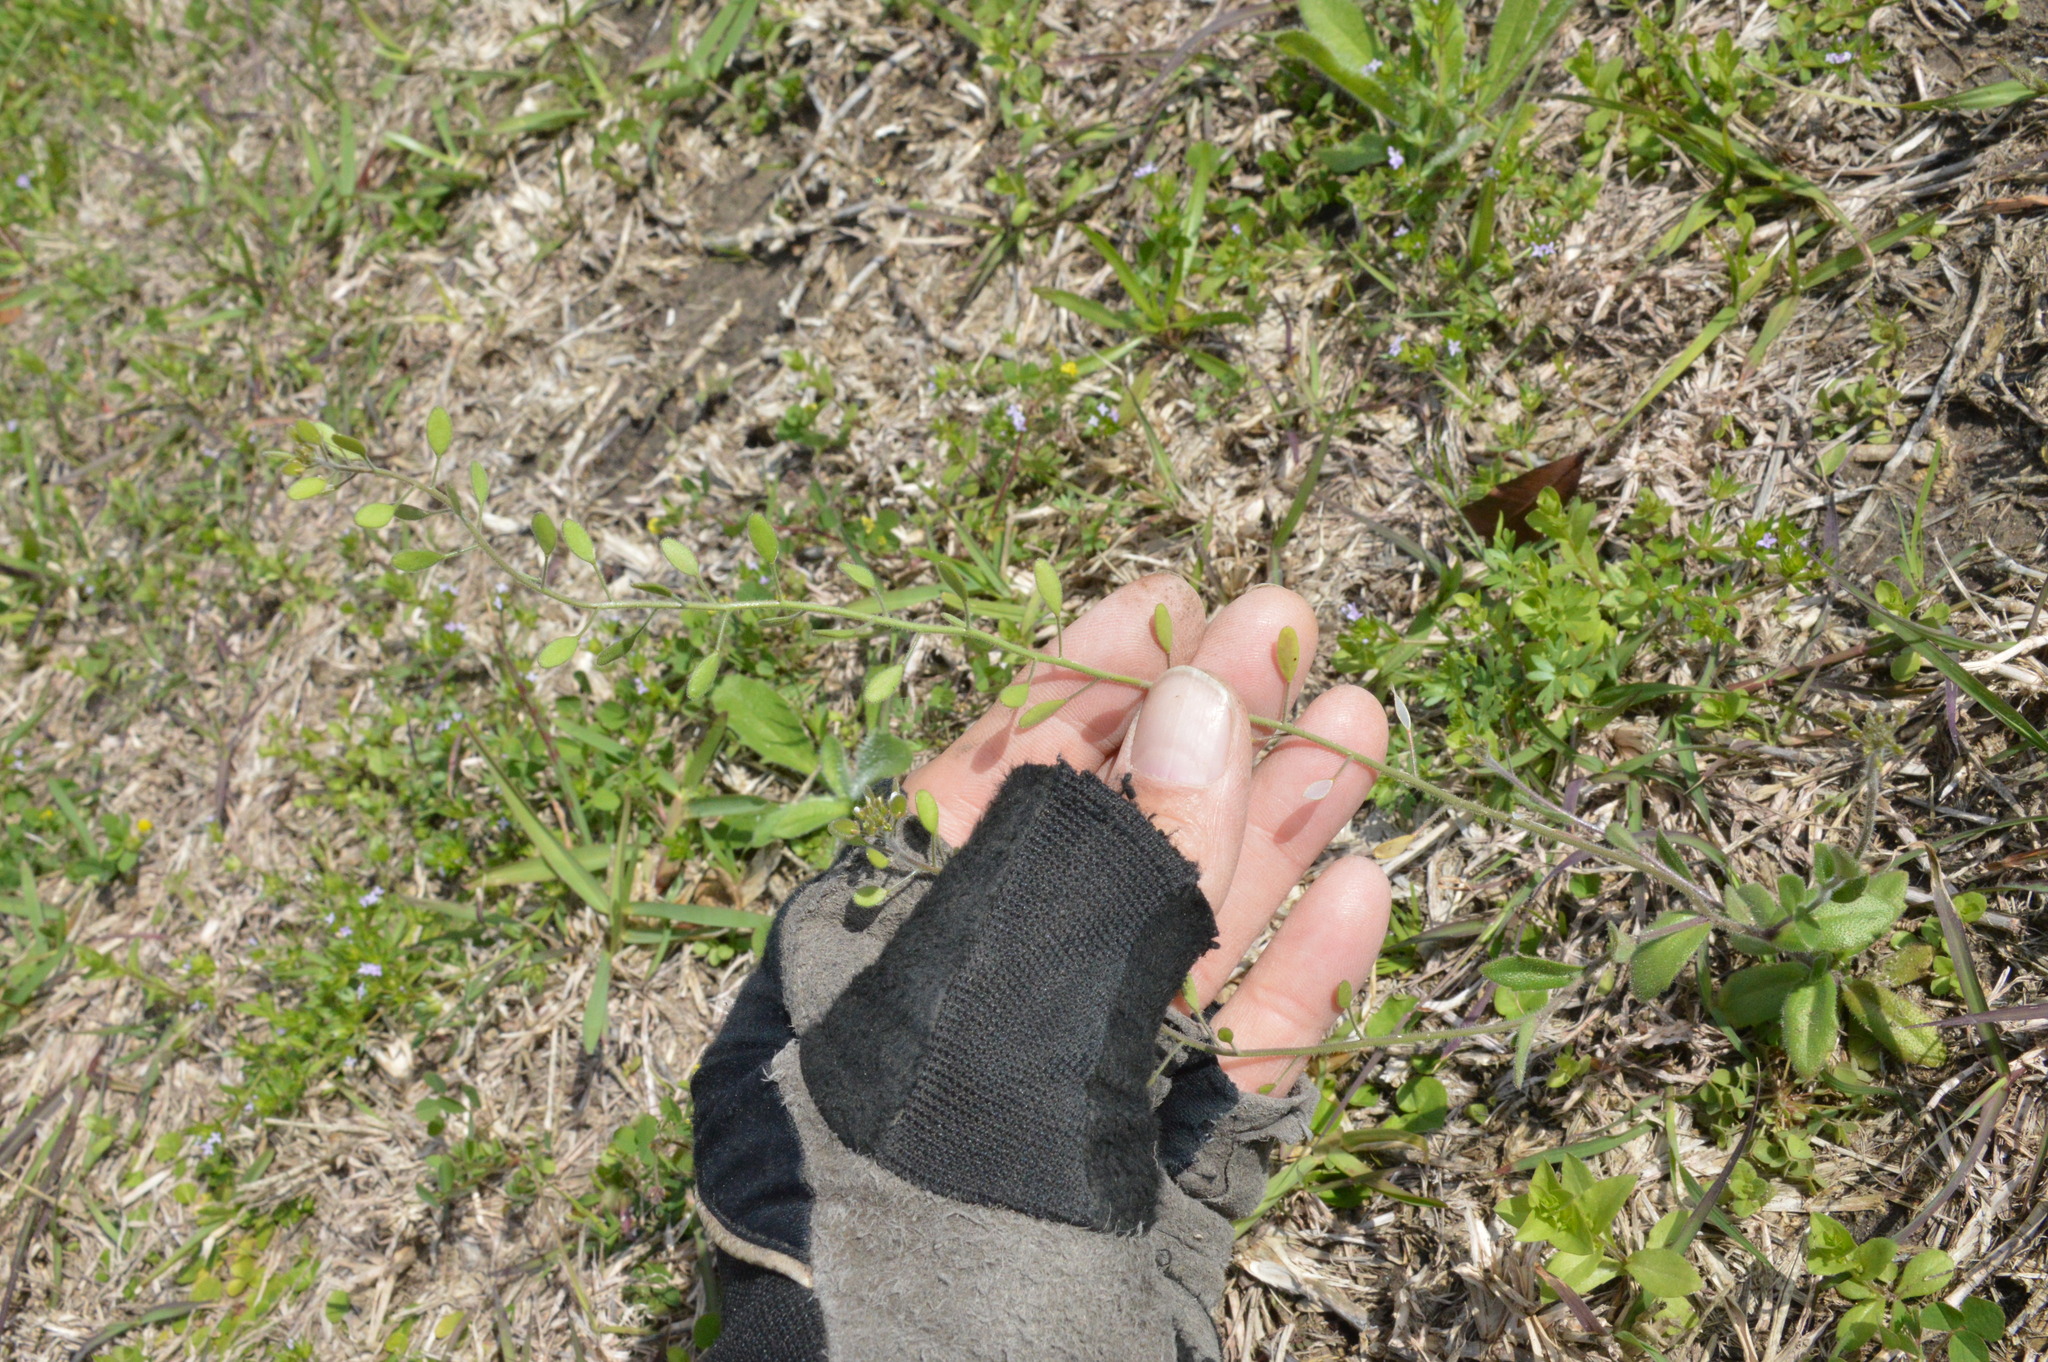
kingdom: Plantae
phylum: Tracheophyta
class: Magnoliopsida
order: Brassicales
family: Brassicaceae
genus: Tomostima
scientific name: Tomostima platycarpa
